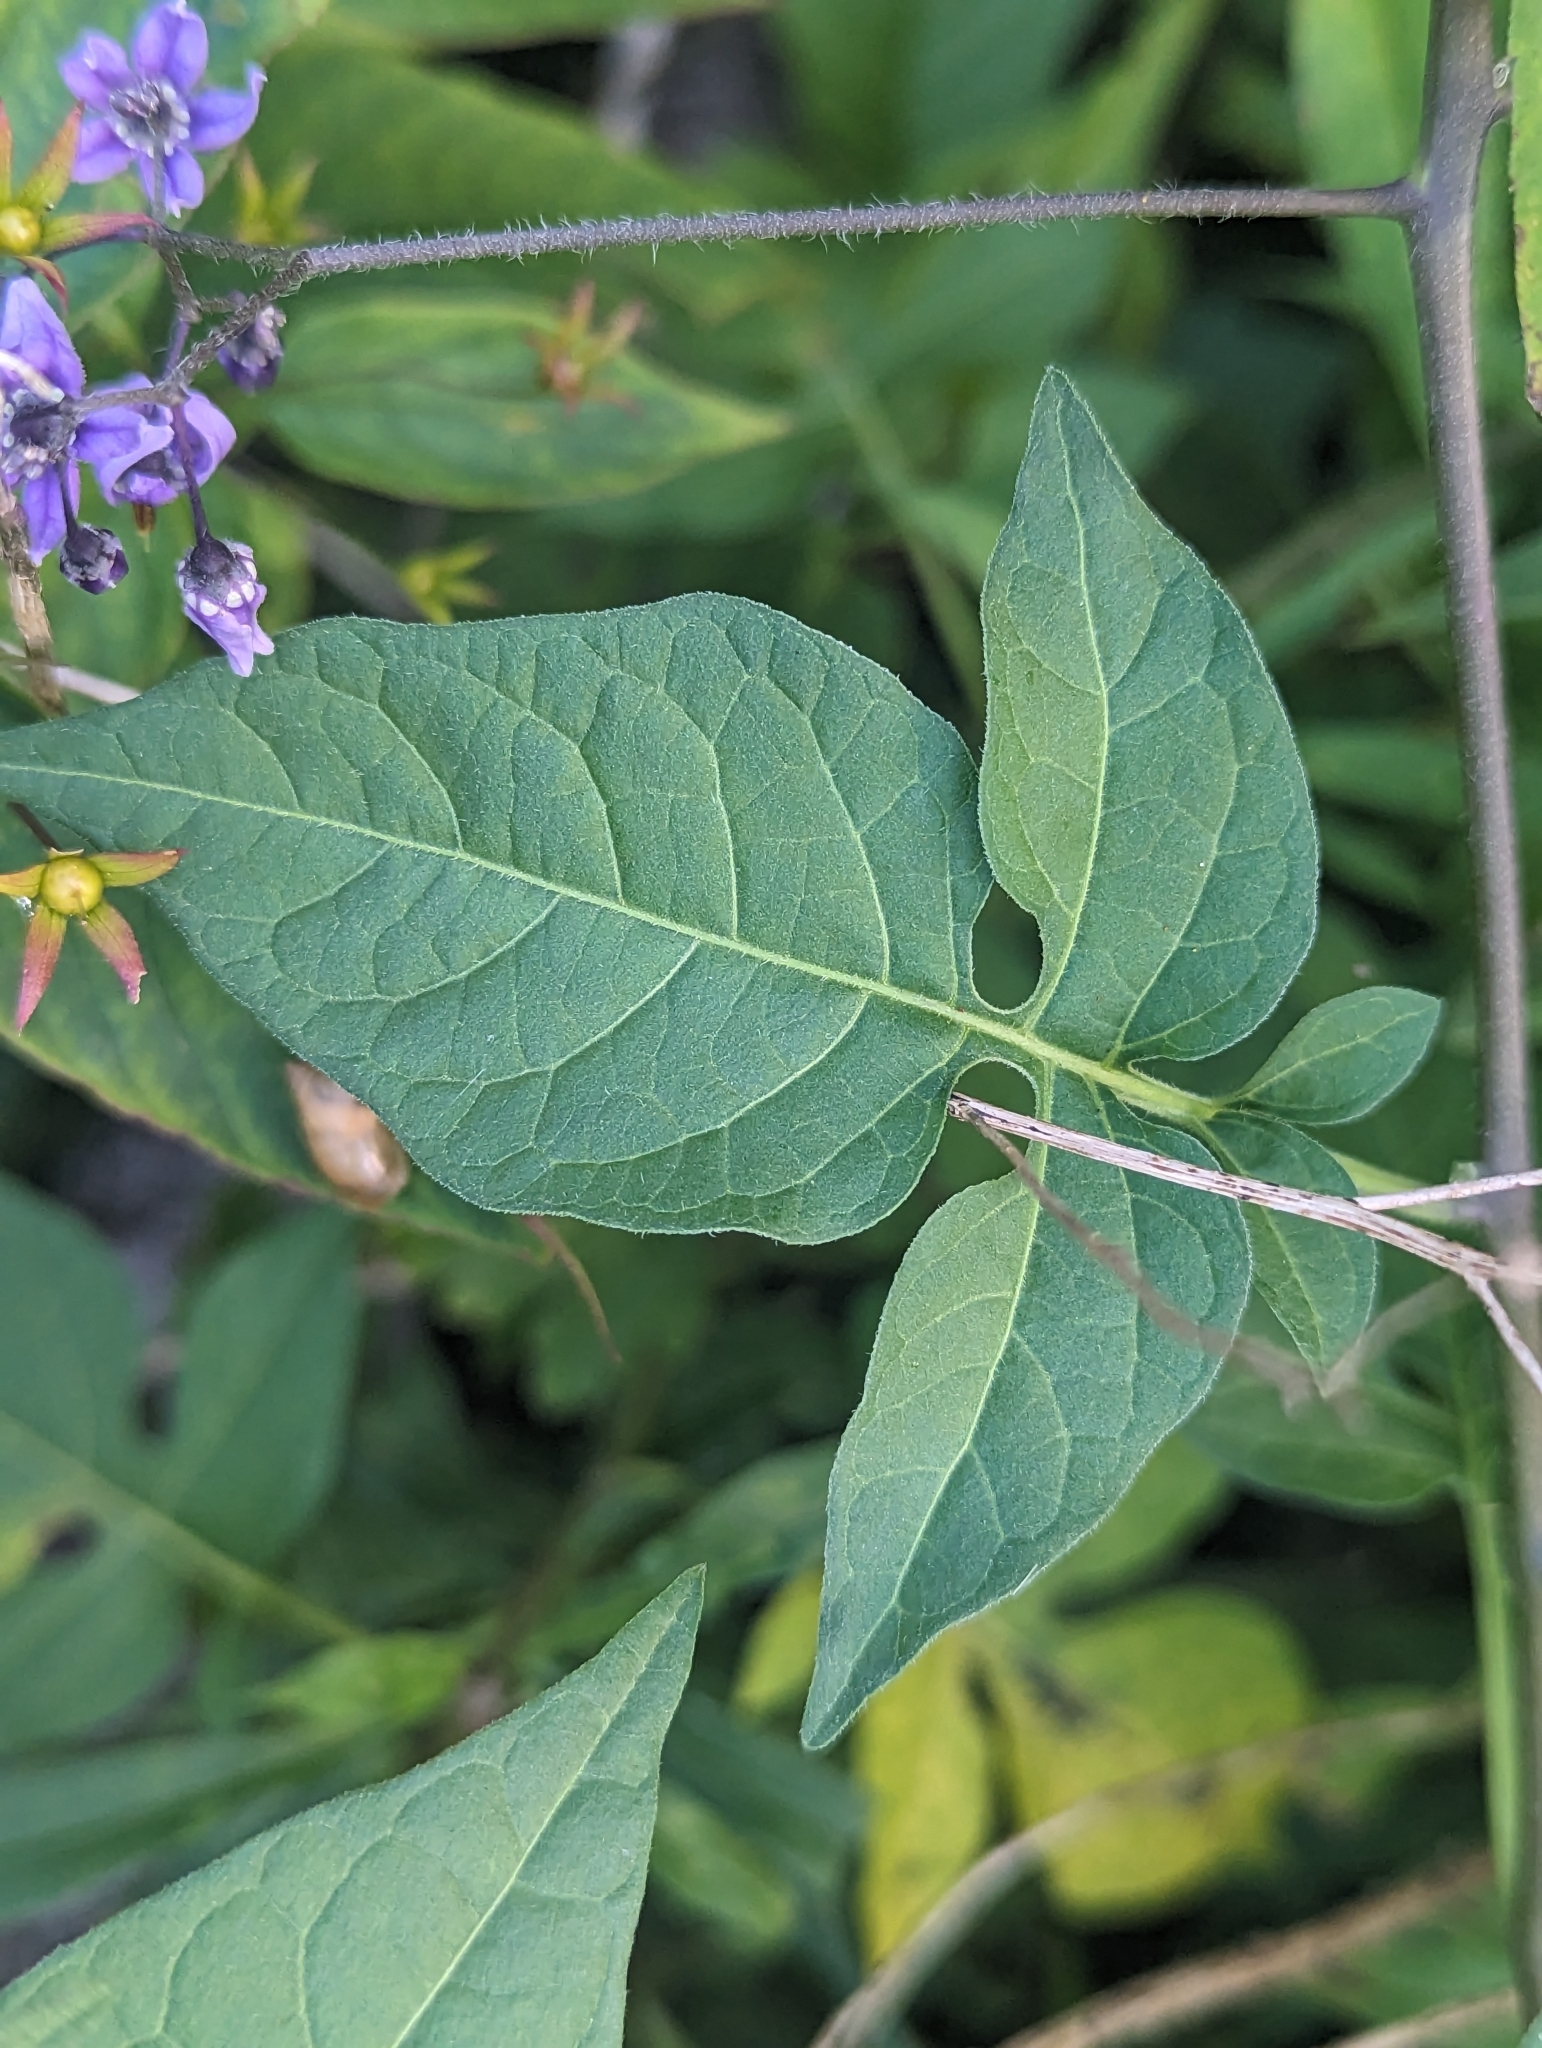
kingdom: Plantae
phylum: Tracheophyta
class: Magnoliopsida
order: Solanales
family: Solanaceae
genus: Solanum
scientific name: Solanum dulcamara
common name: Climbing nightshade
